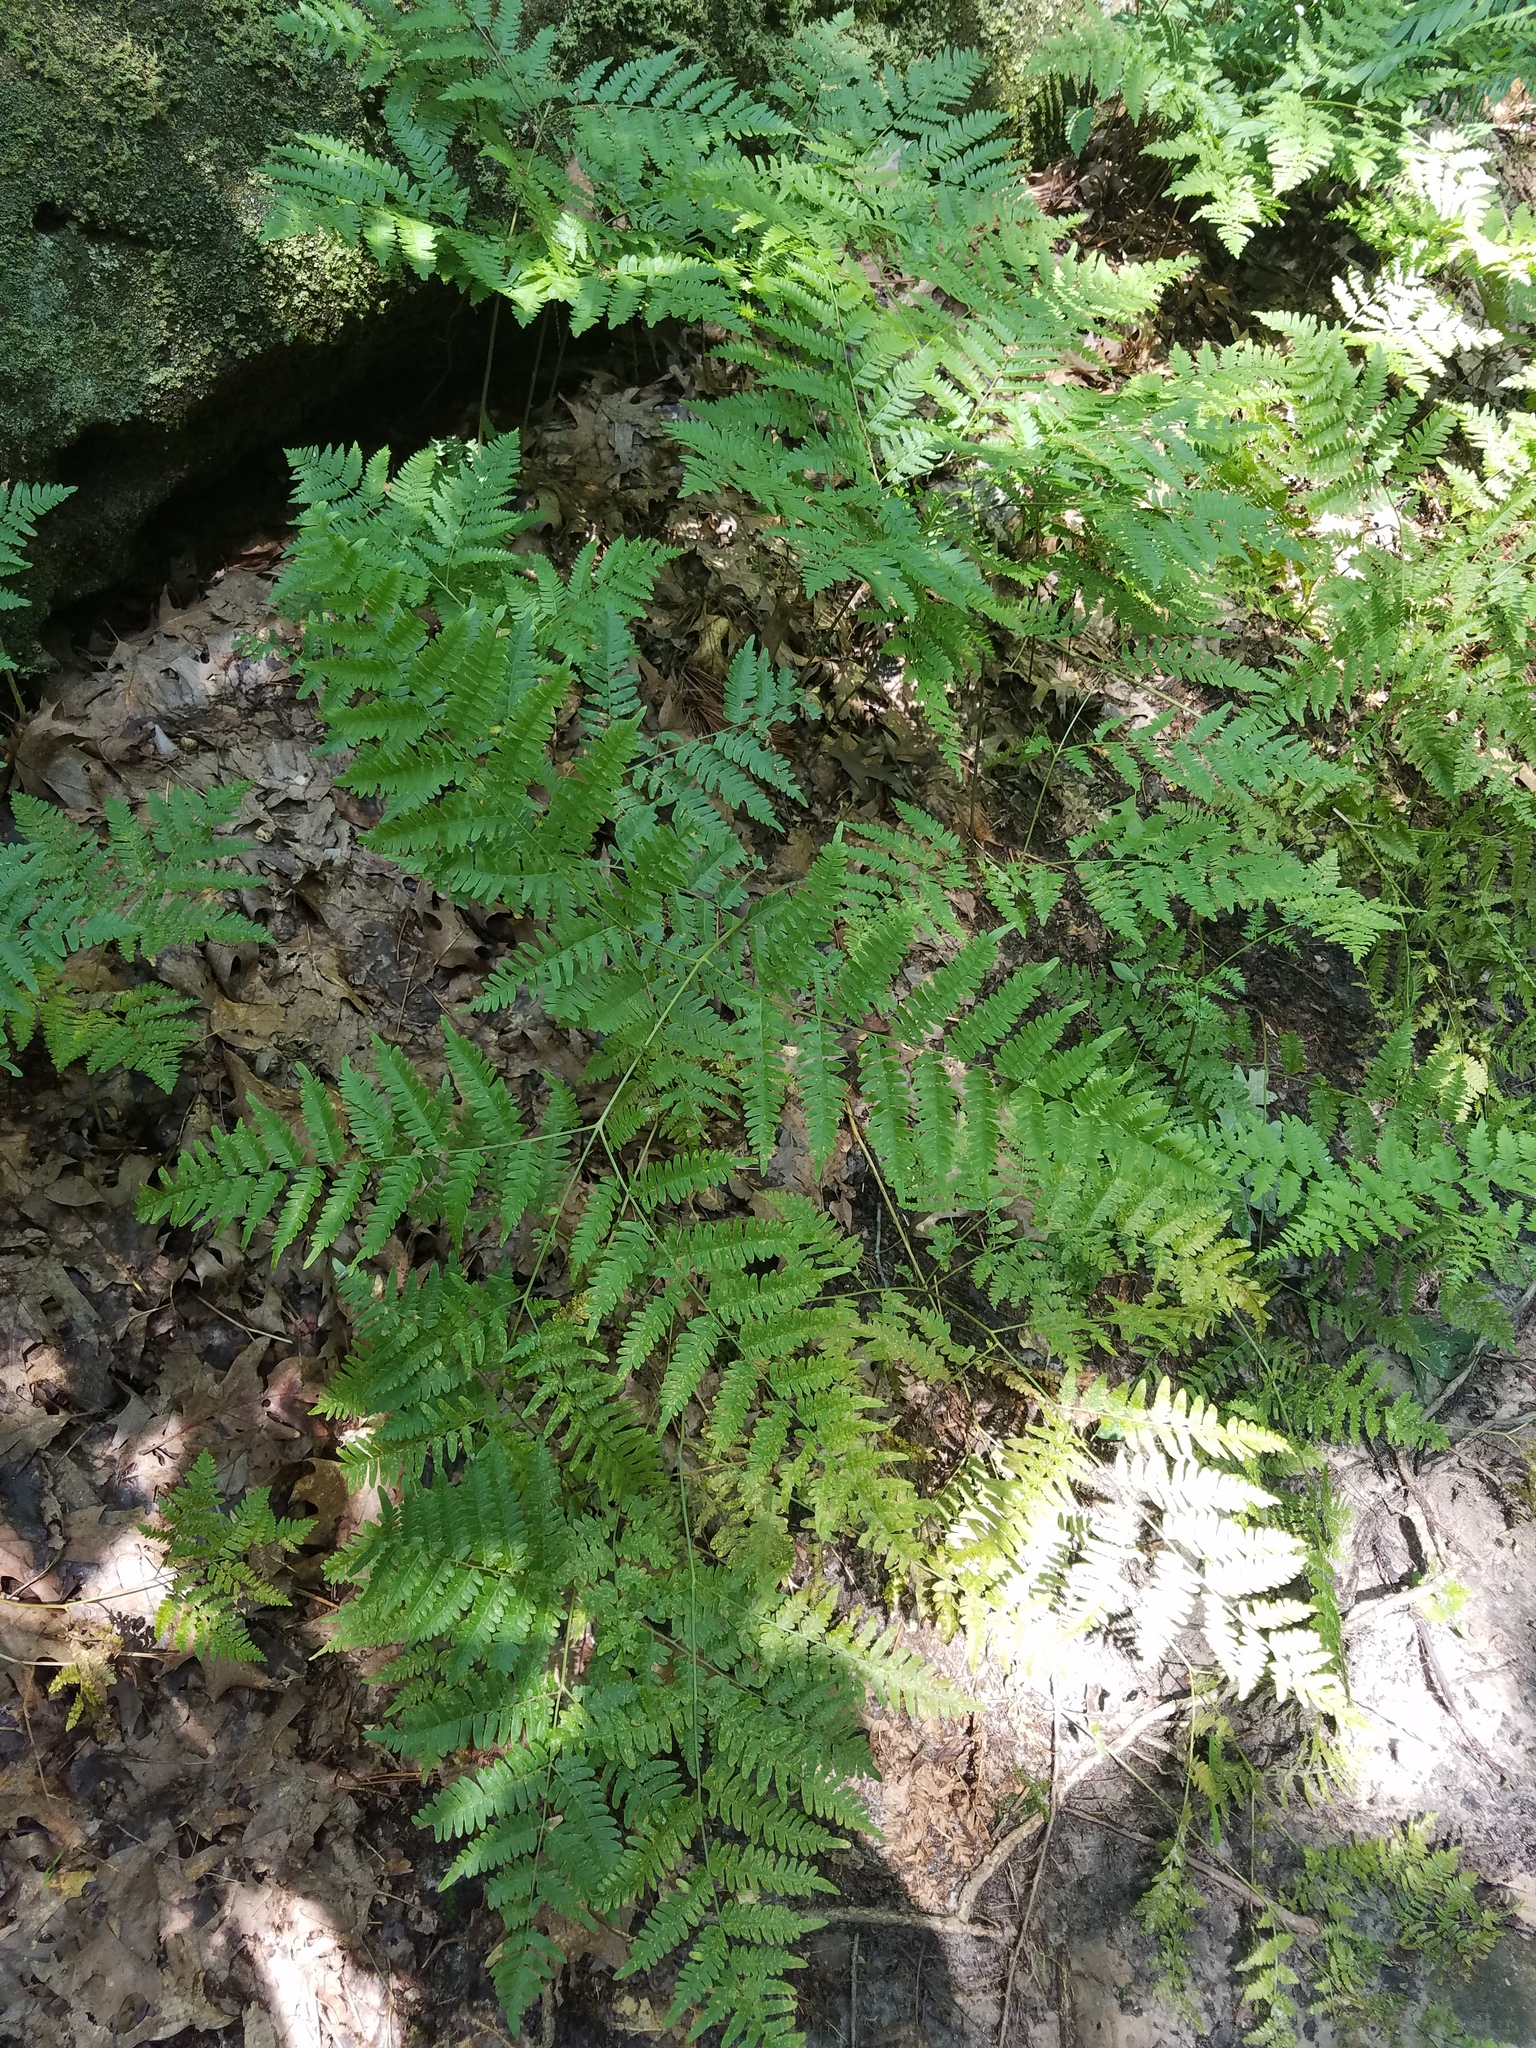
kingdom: Plantae
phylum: Tracheophyta
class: Polypodiopsida
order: Polypodiales
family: Dennstaedtiaceae
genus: Pteridium
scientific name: Pteridium aquilinum
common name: Bracken
